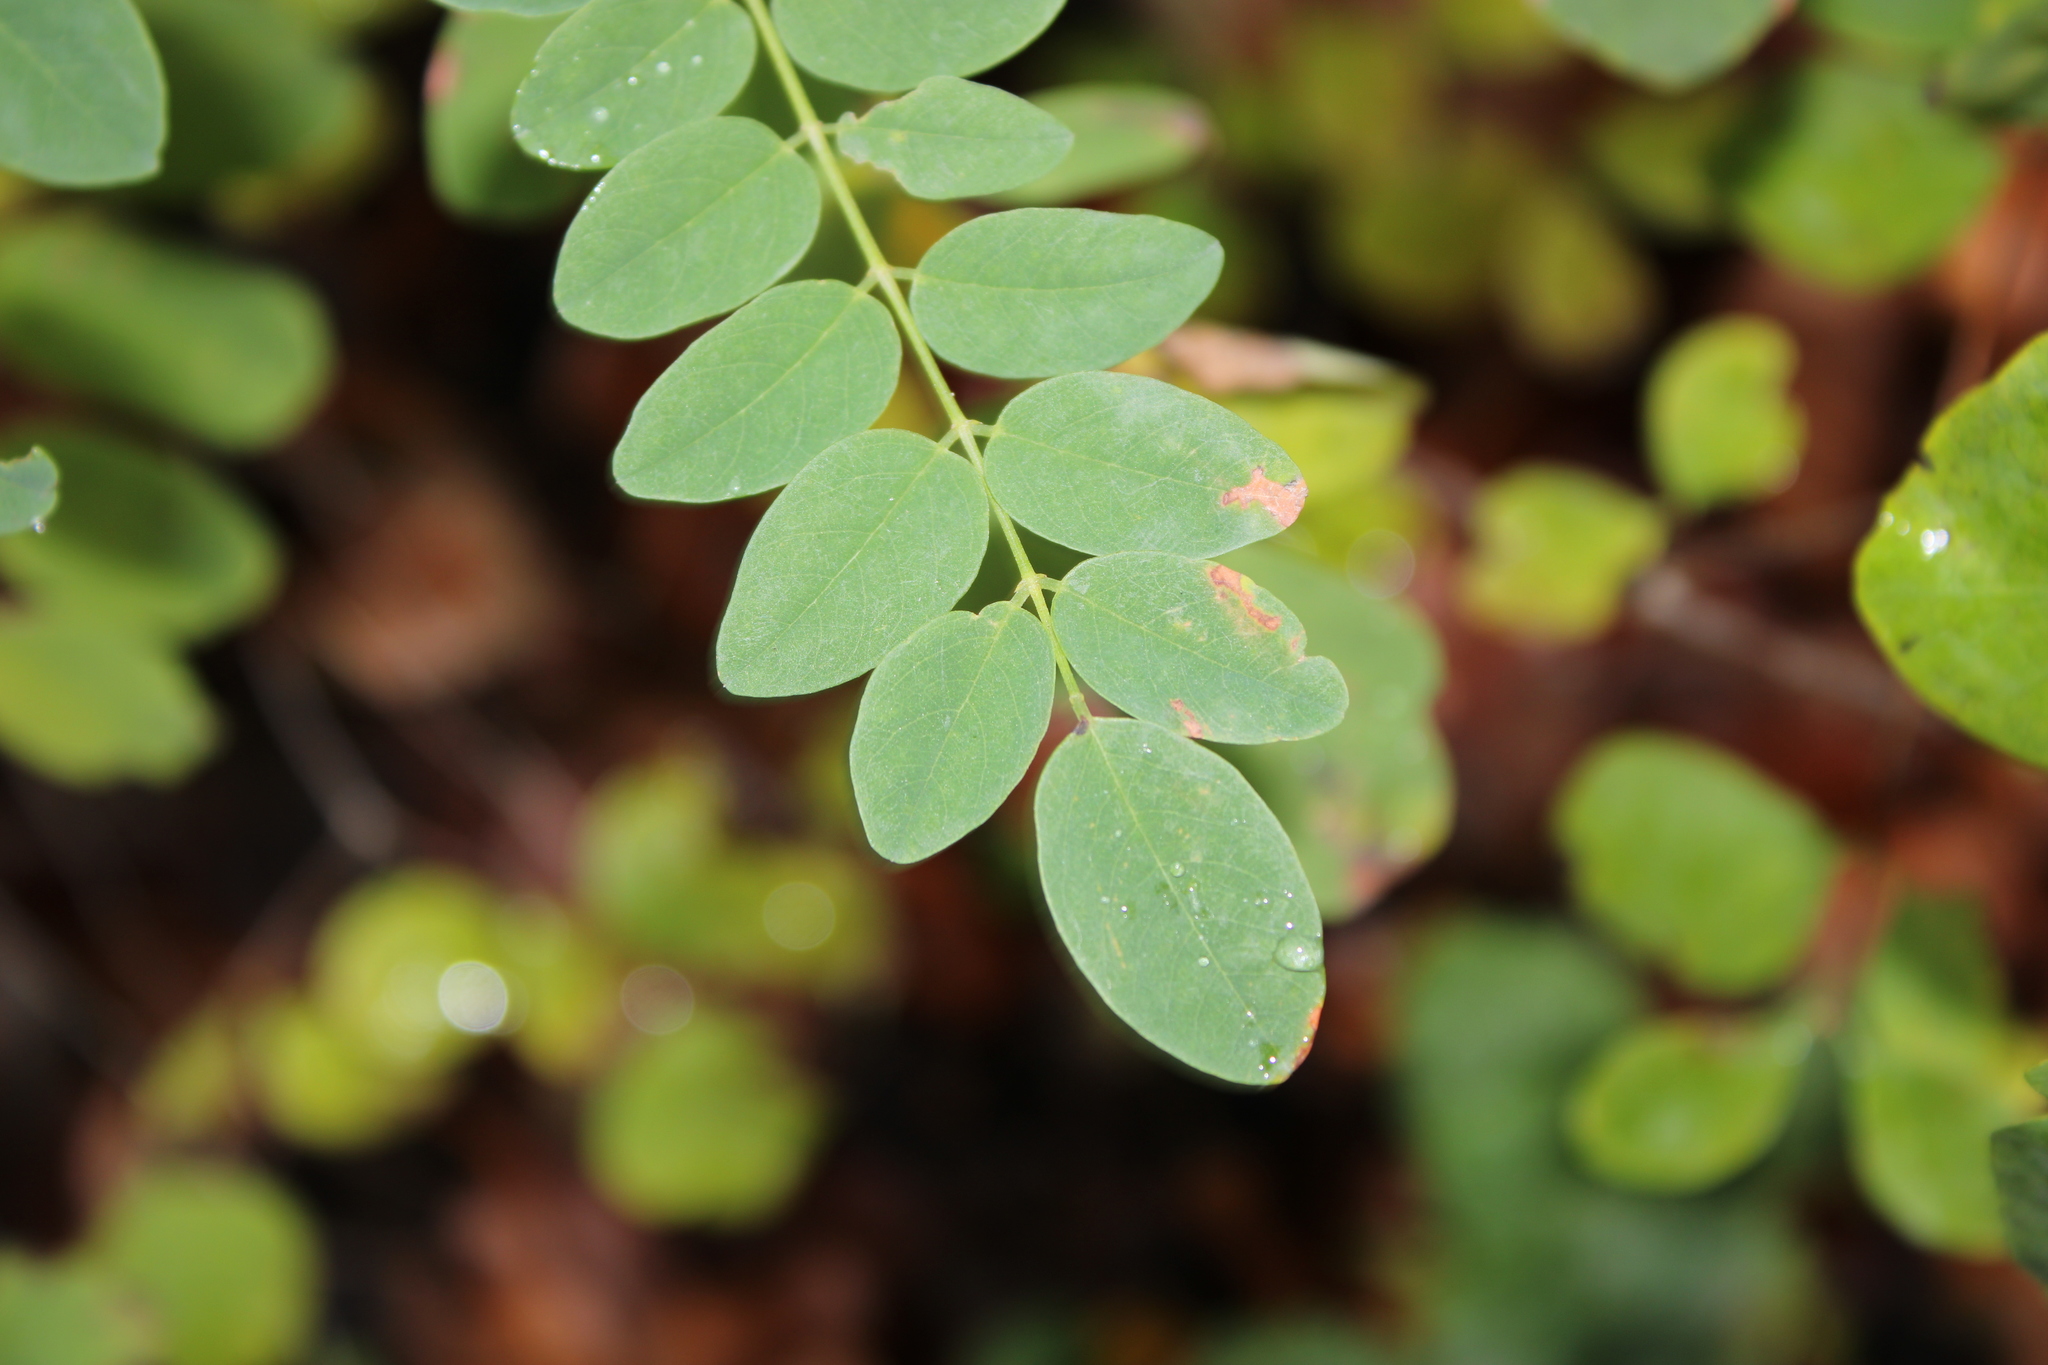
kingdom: Plantae
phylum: Tracheophyta
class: Magnoliopsida
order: Fabales
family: Fabaceae
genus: Robinia
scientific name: Robinia pseudoacacia
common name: Black locust
